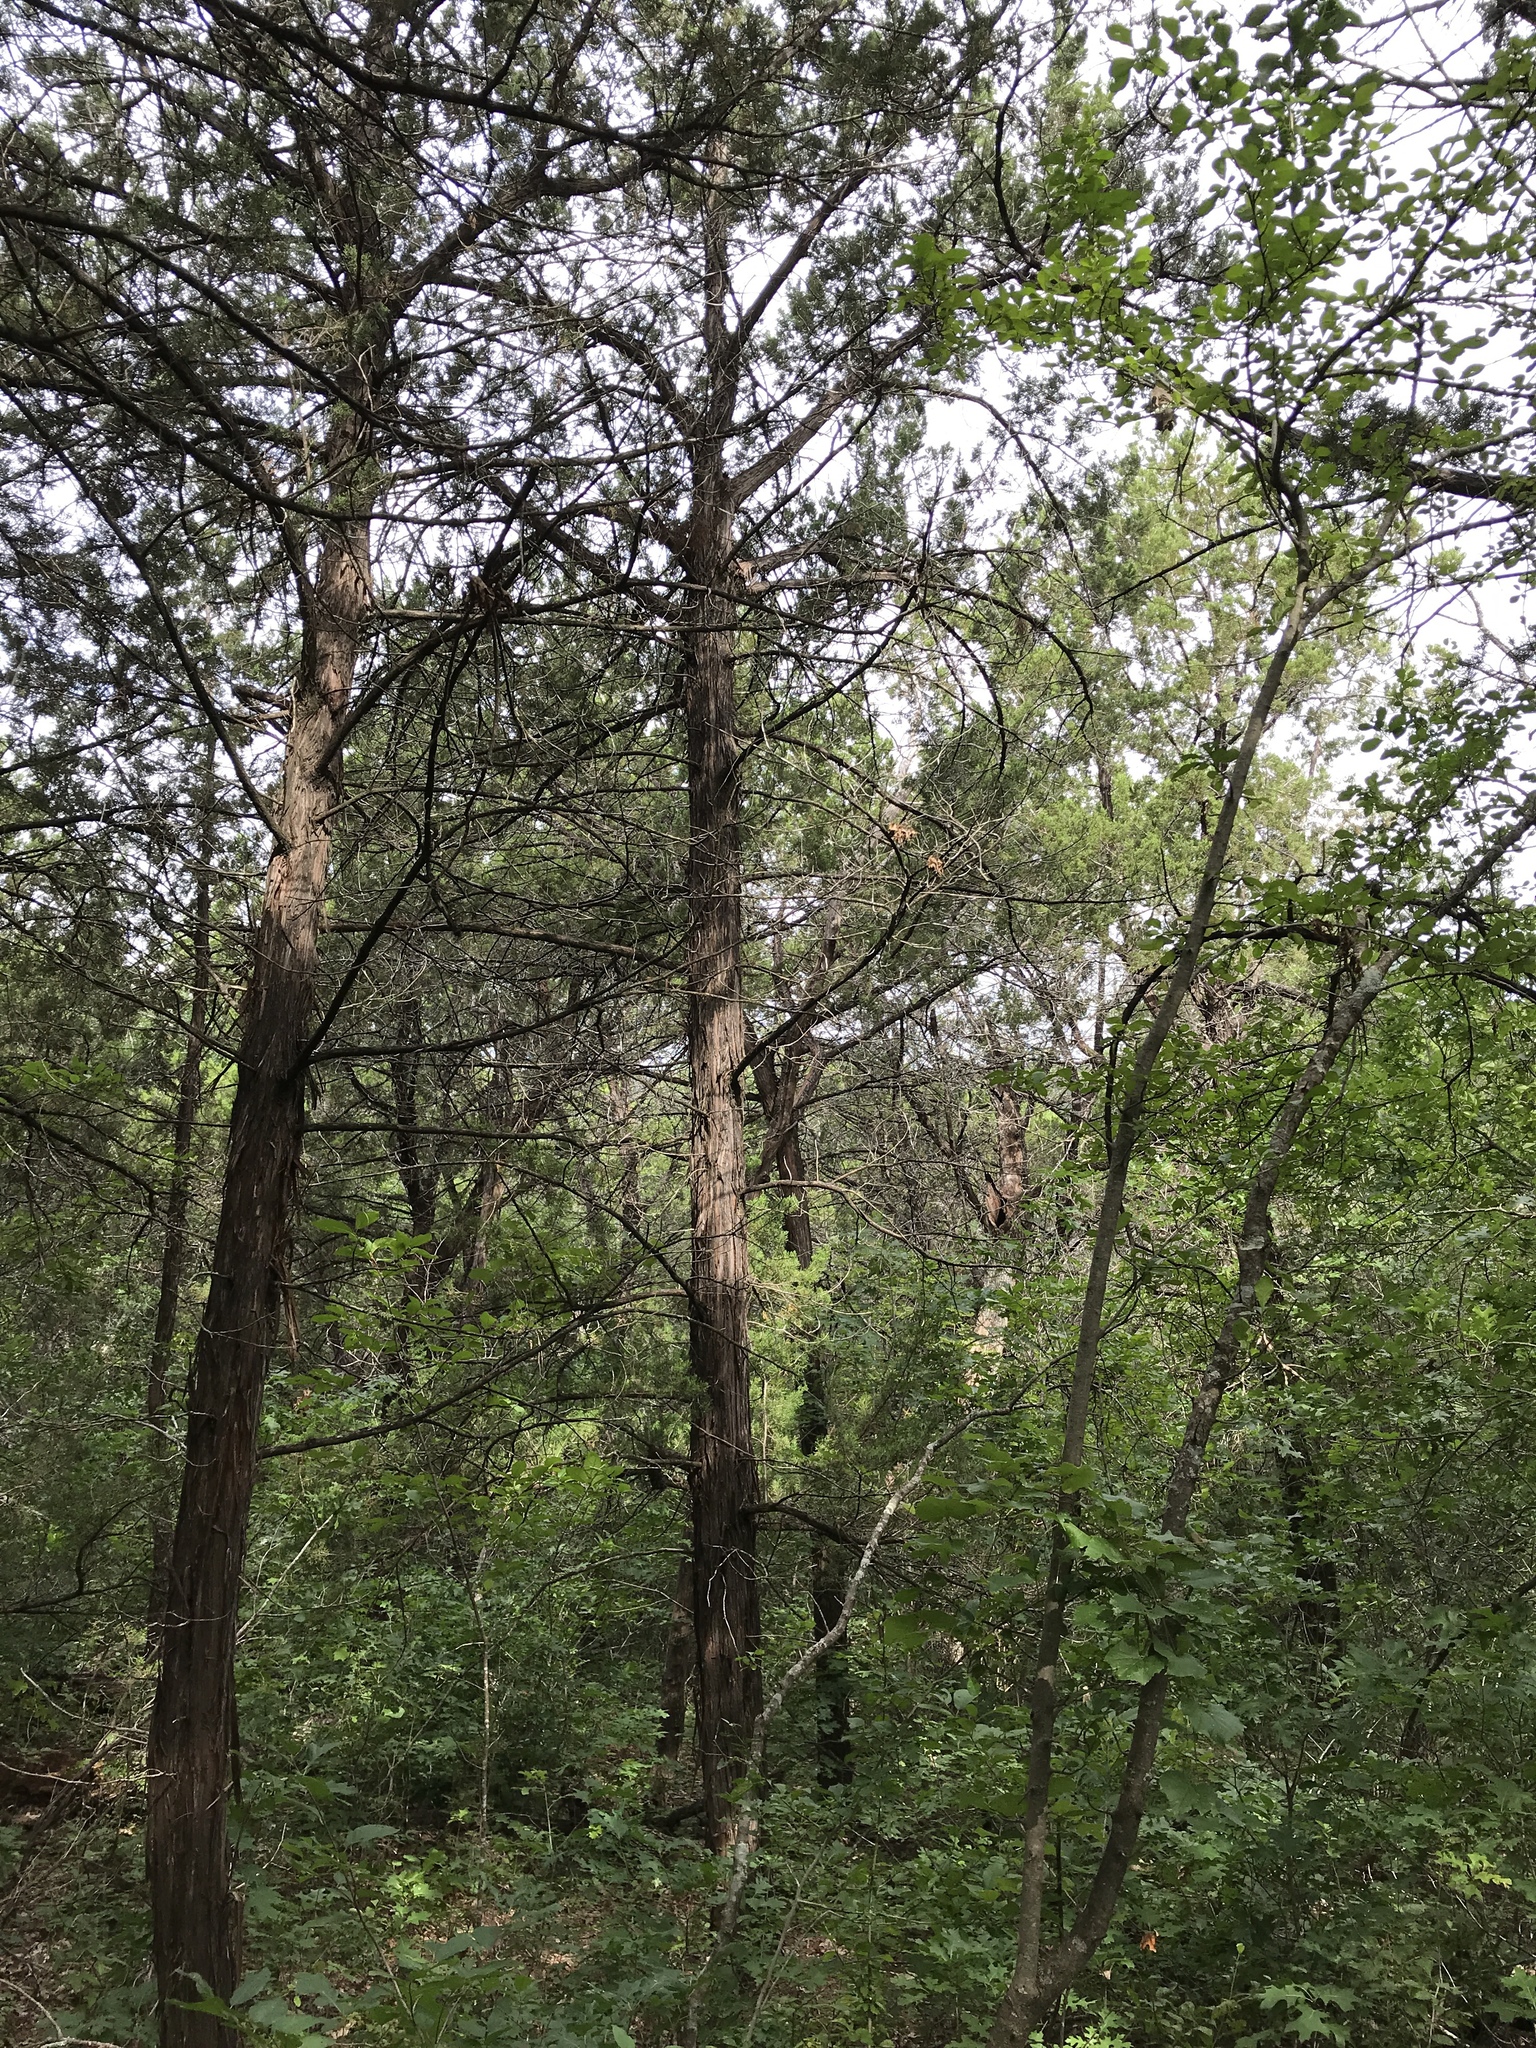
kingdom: Plantae
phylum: Tracheophyta
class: Pinopsida
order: Pinales
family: Cupressaceae
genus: Juniperus
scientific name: Juniperus ashei
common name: Mexican juniper
